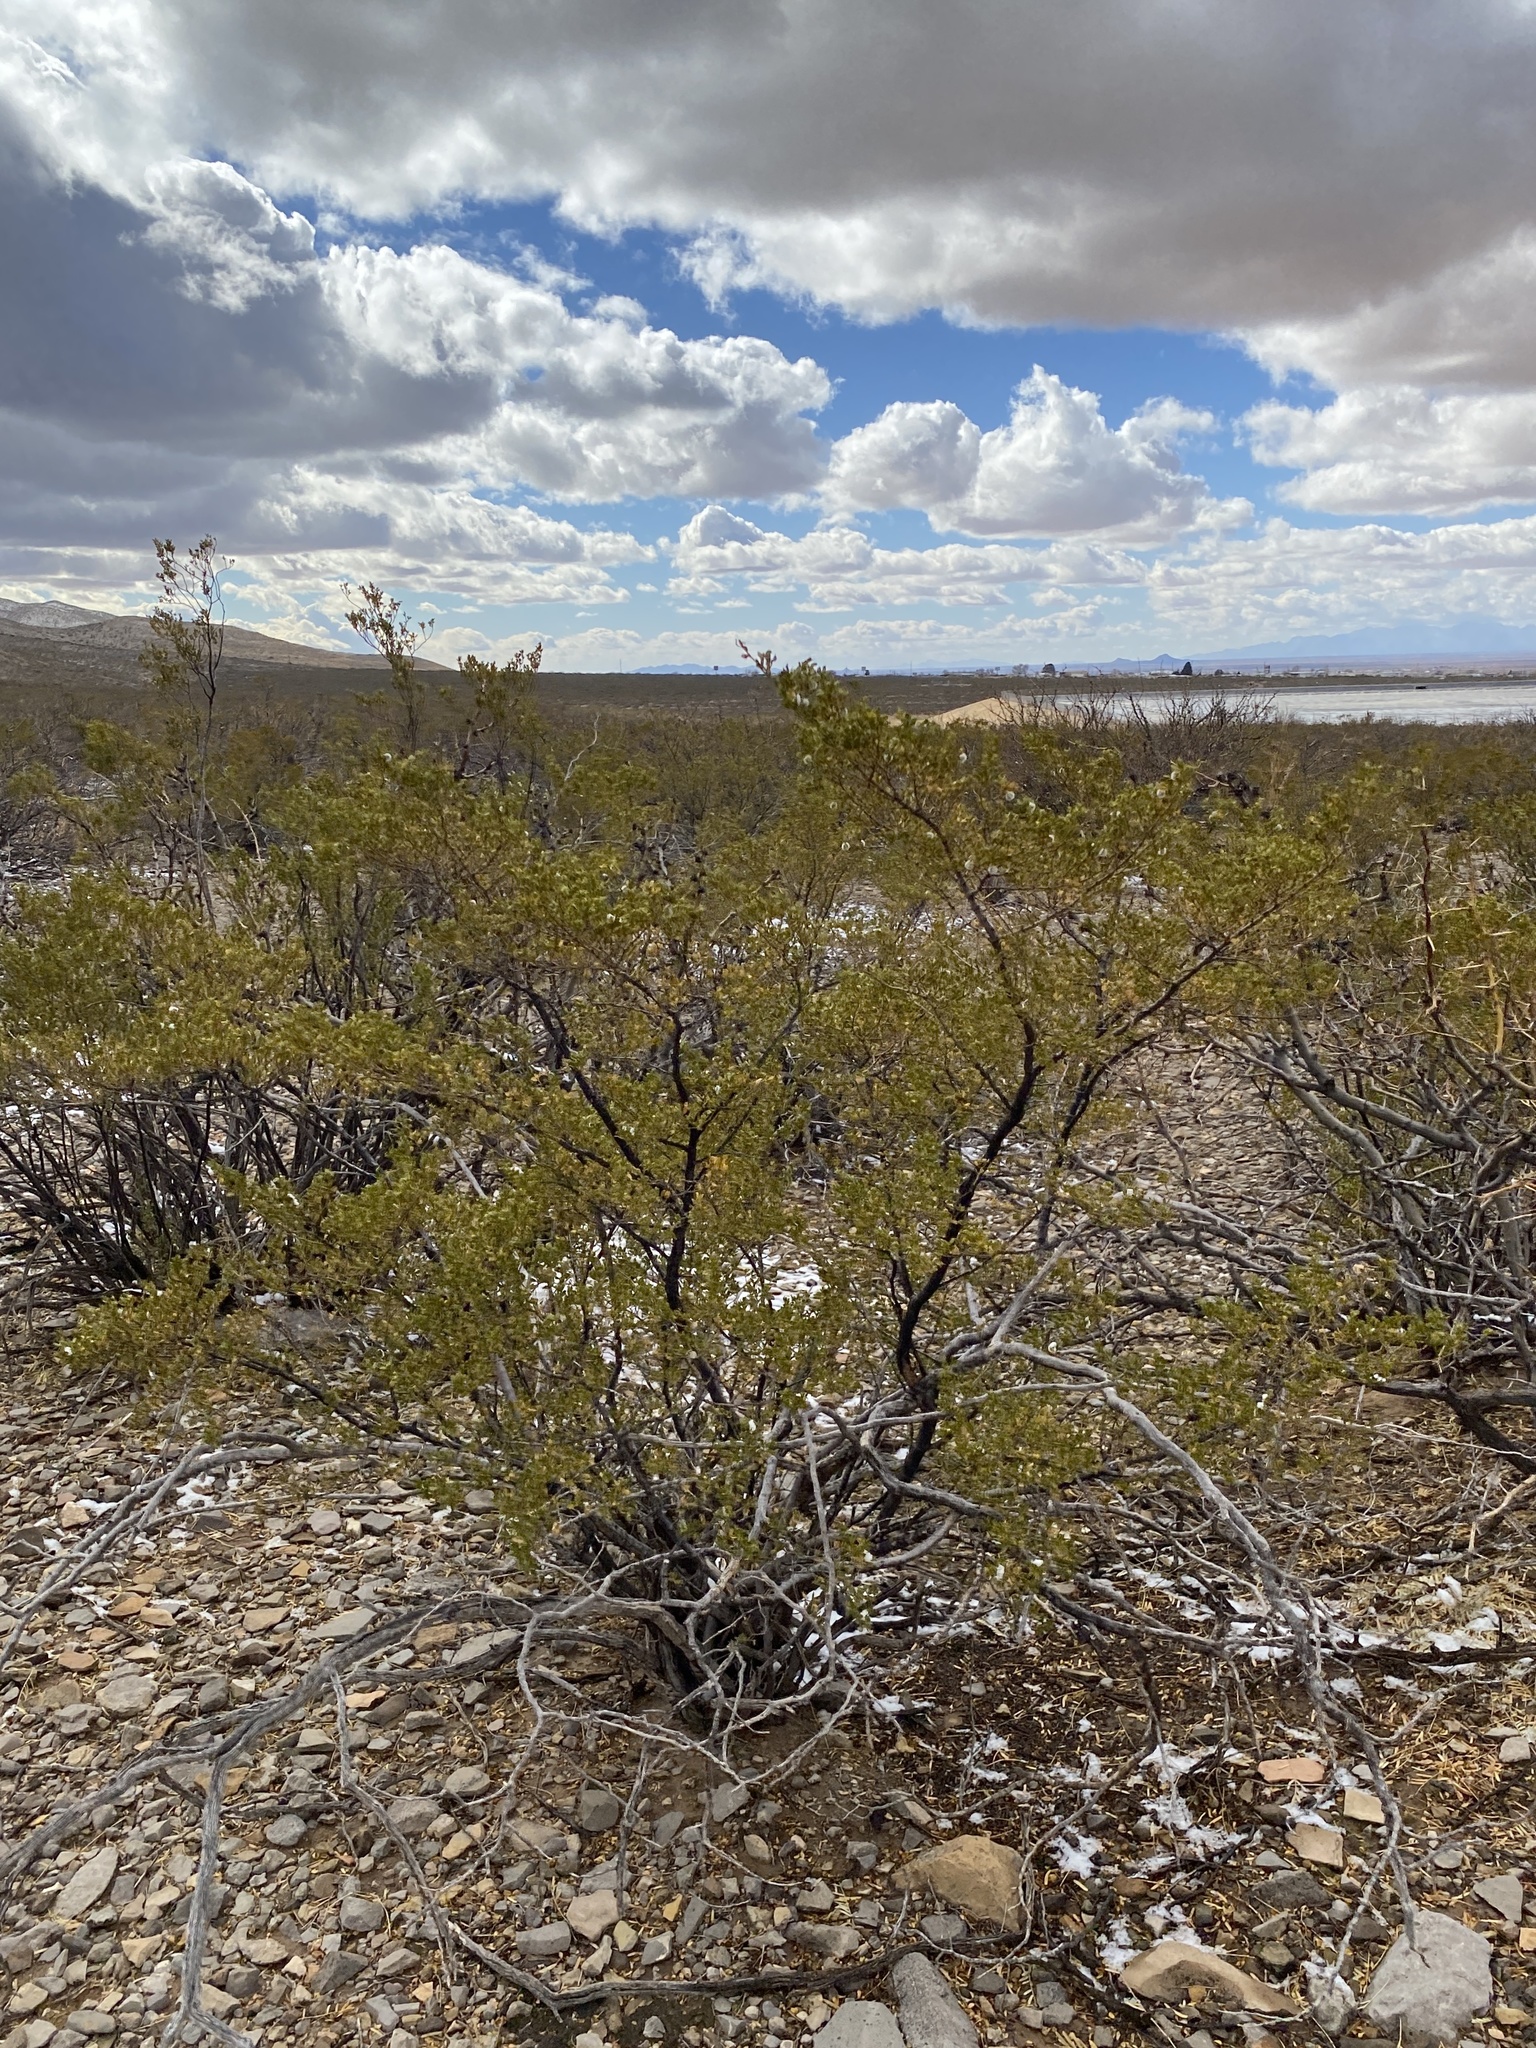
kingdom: Plantae
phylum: Tracheophyta
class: Magnoliopsida
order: Zygophyllales
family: Zygophyllaceae
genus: Larrea
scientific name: Larrea tridentata
